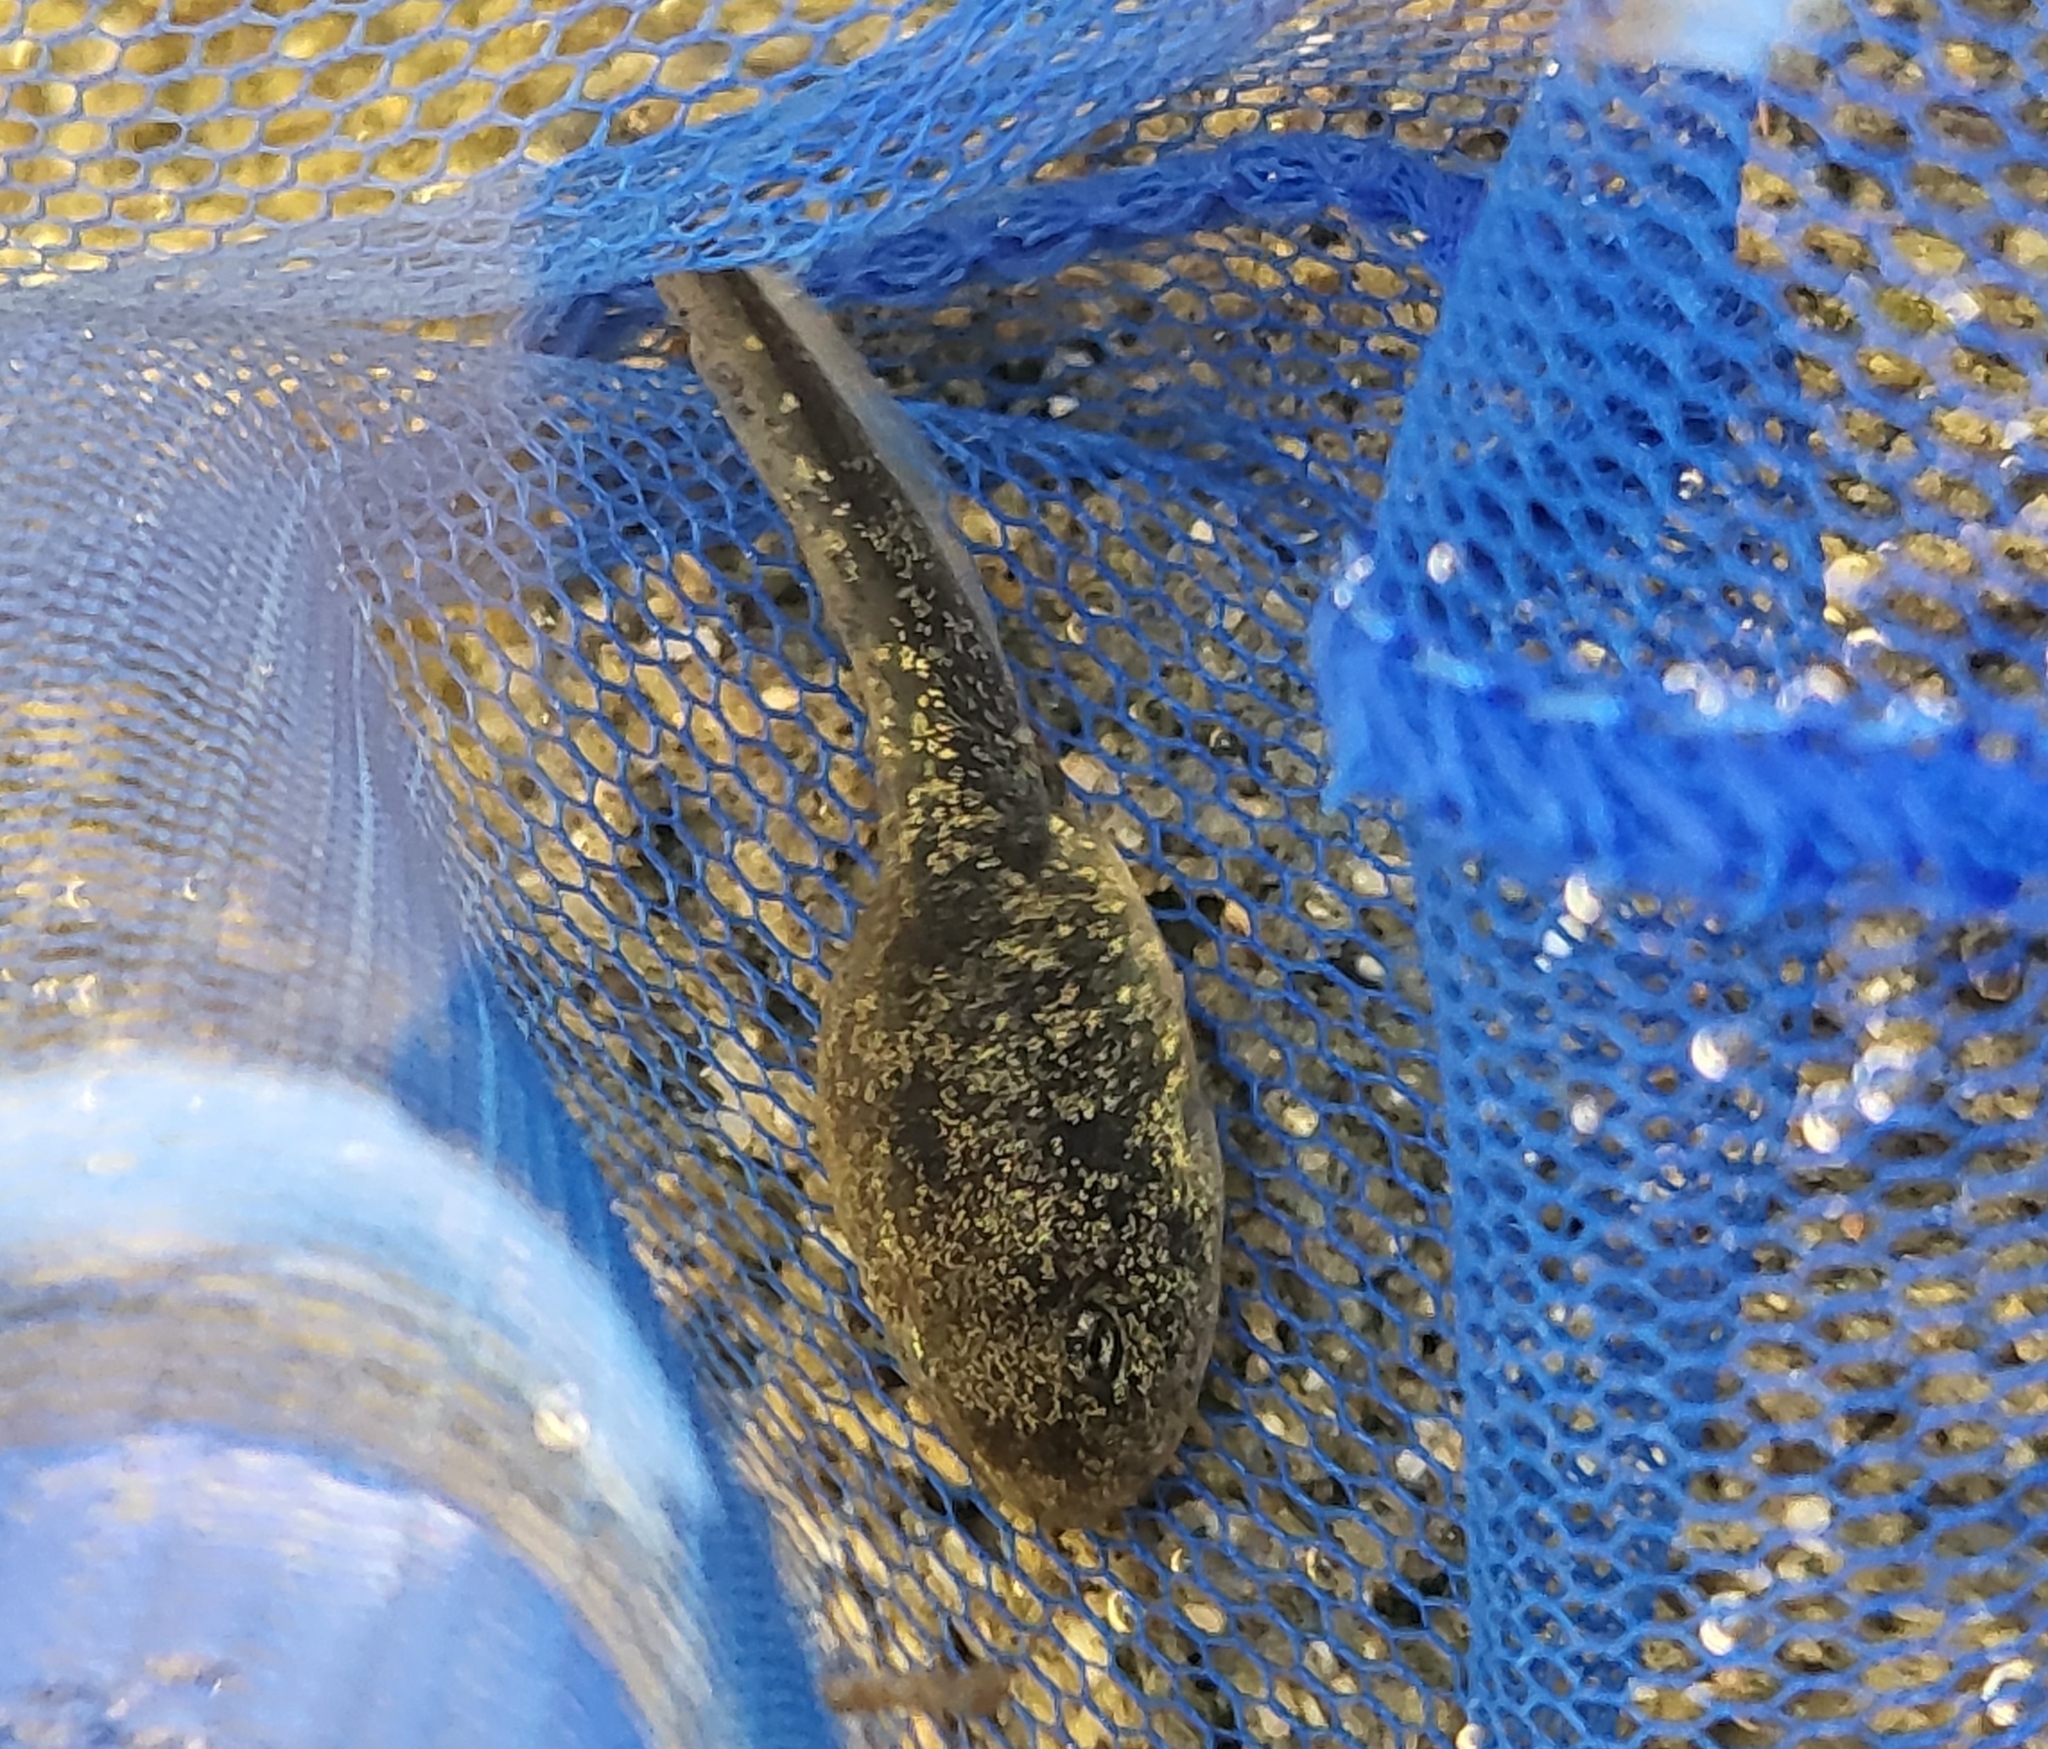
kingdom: Animalia
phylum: Chordata
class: Amphibia
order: Anura
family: Ranidae
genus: Rana
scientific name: Rana boylii
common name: Foothill yellow-legged frog
